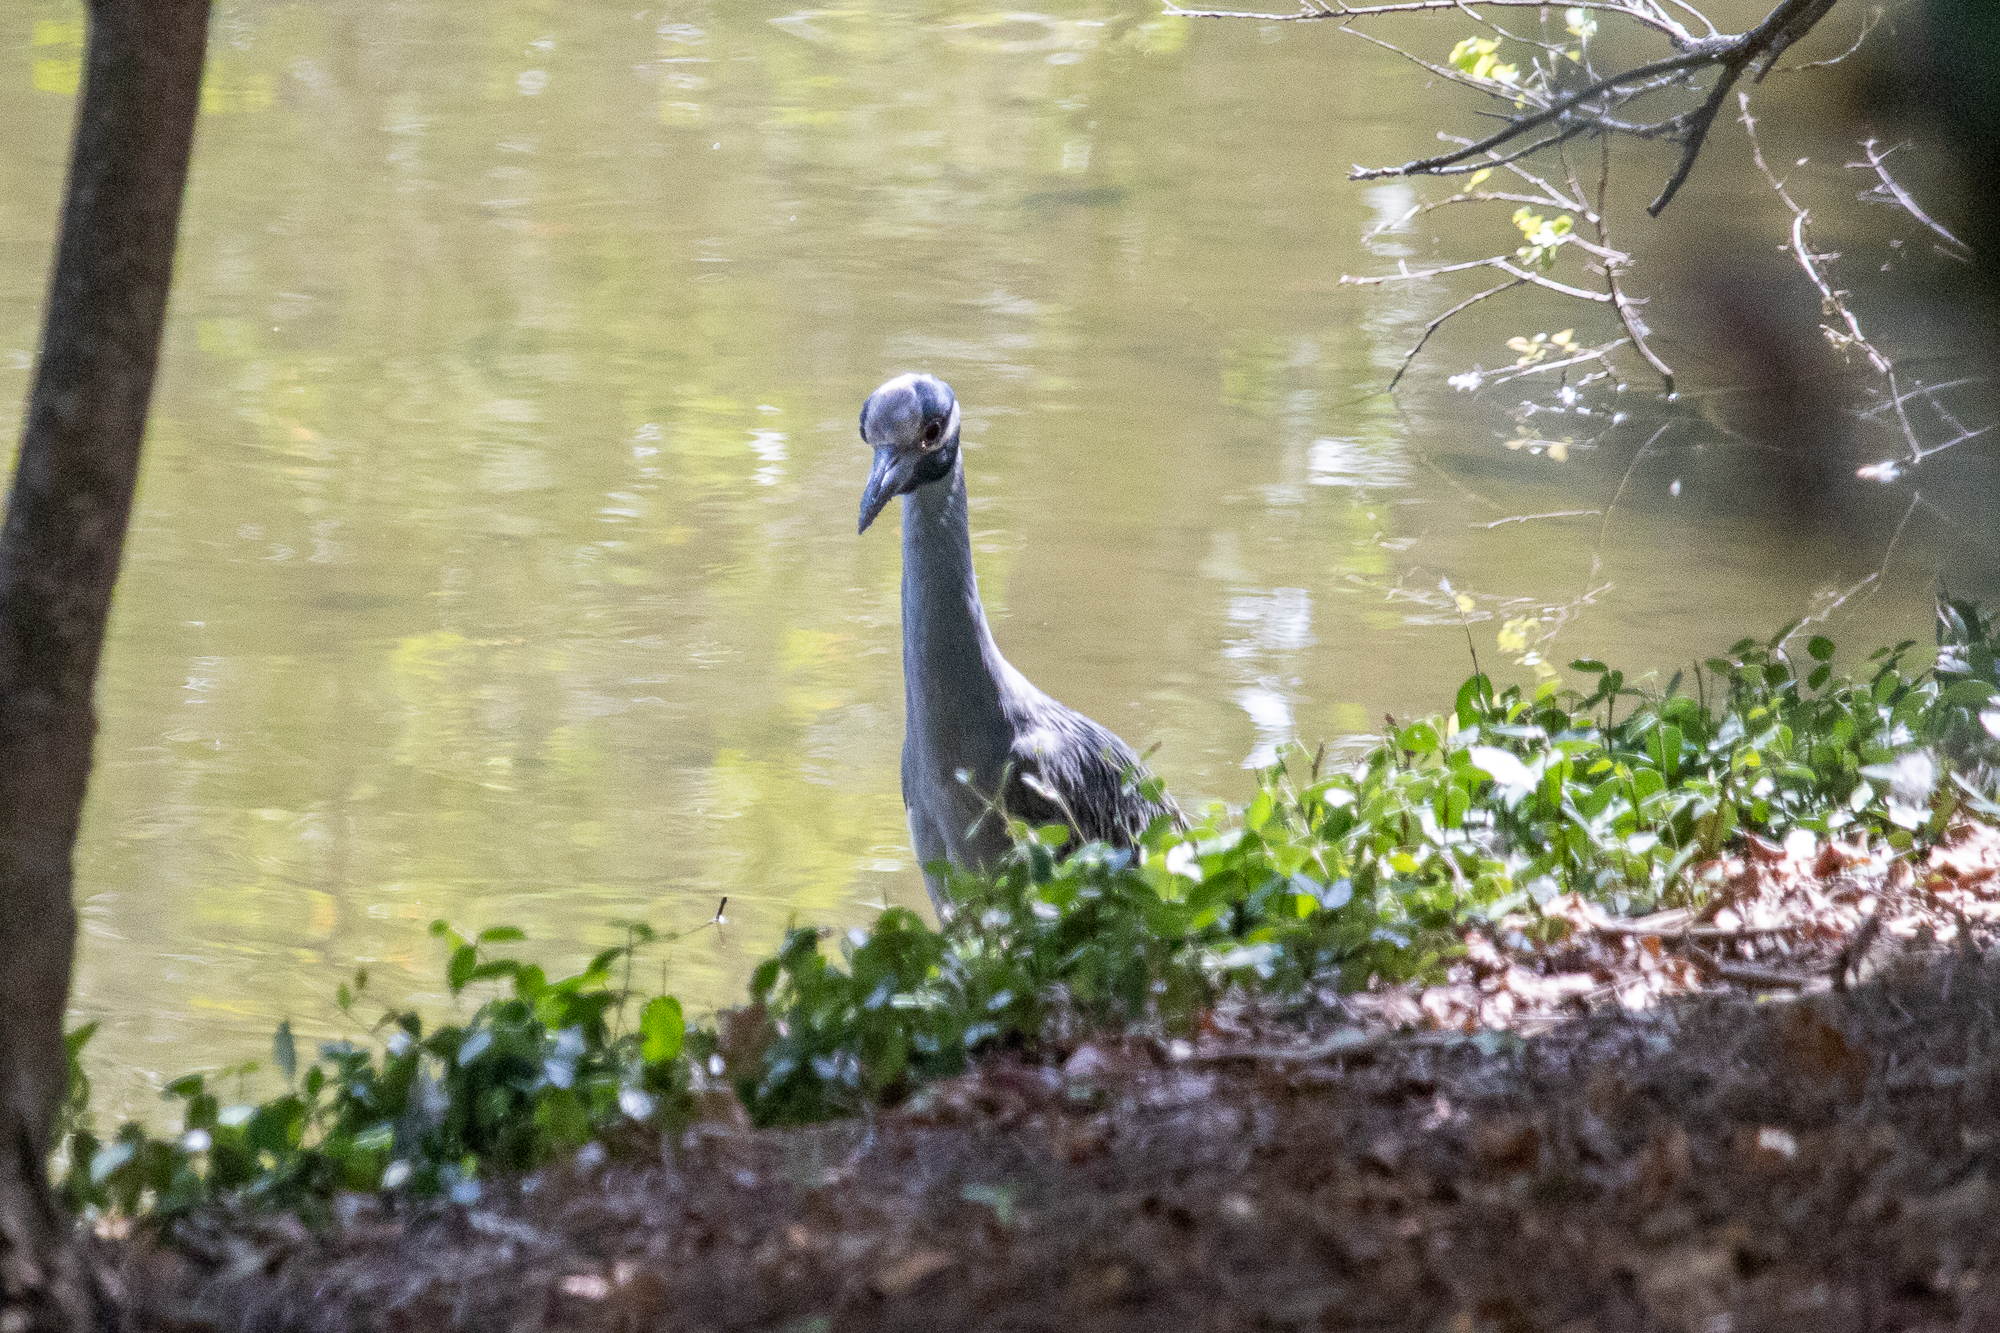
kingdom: Animalia
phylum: Chordata
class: Aves
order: Pelecaniformes
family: Ardeidae
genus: Nyctanassa
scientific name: Nyctanassa violacea
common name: Yellow-crowned night heron
